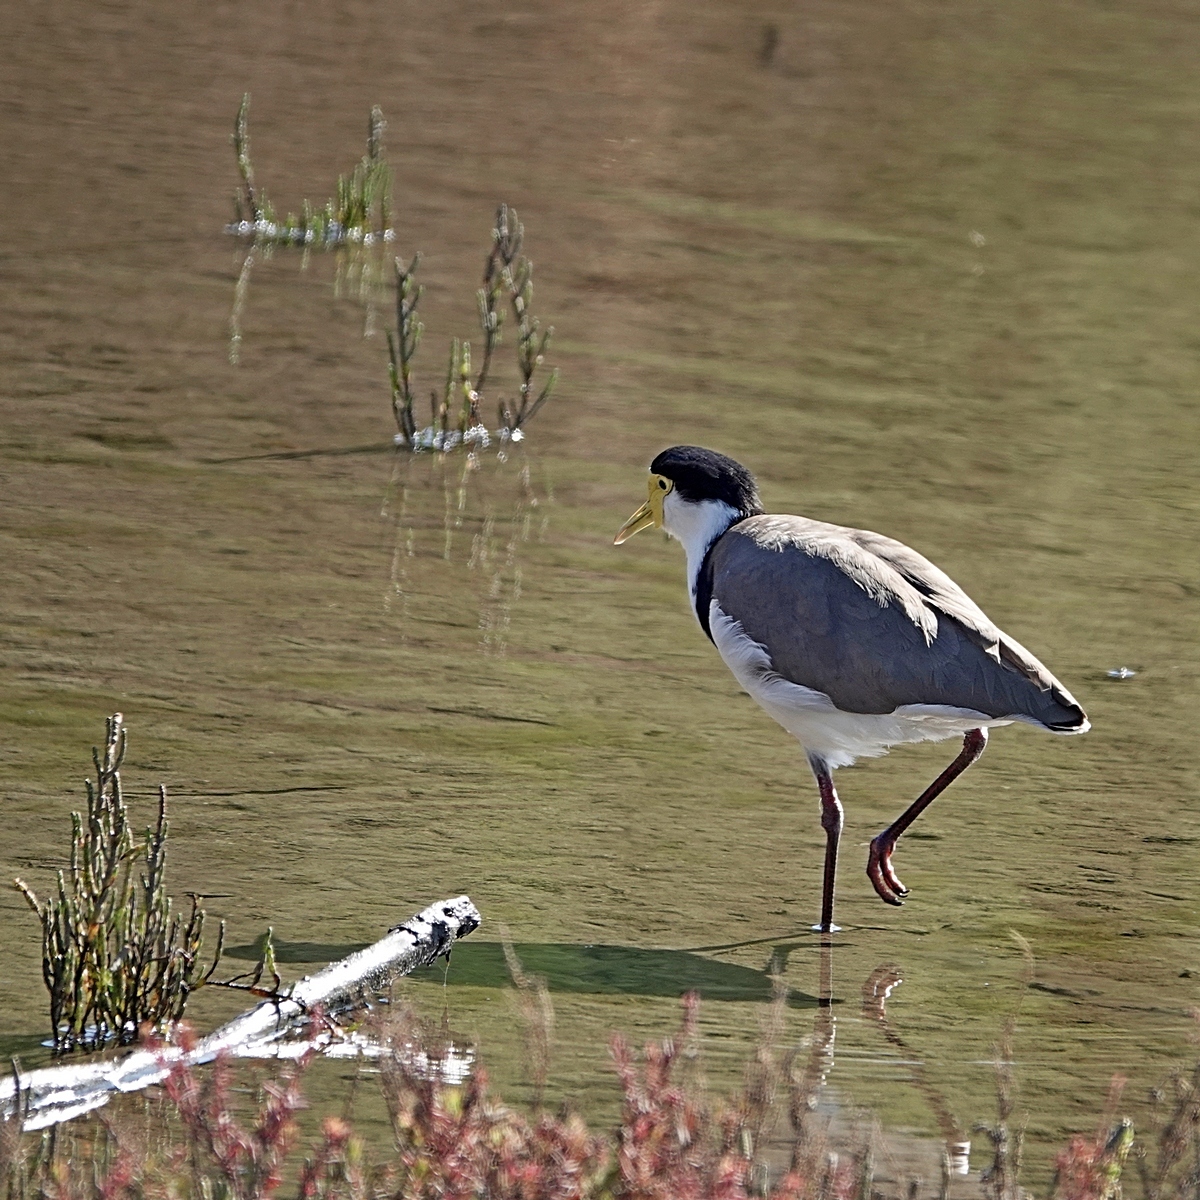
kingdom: Animalia
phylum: Chordata
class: Aves
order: Charadriiformes
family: Charadriidae
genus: Vanellus
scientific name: Vanellus miles
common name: Masked lapwing
